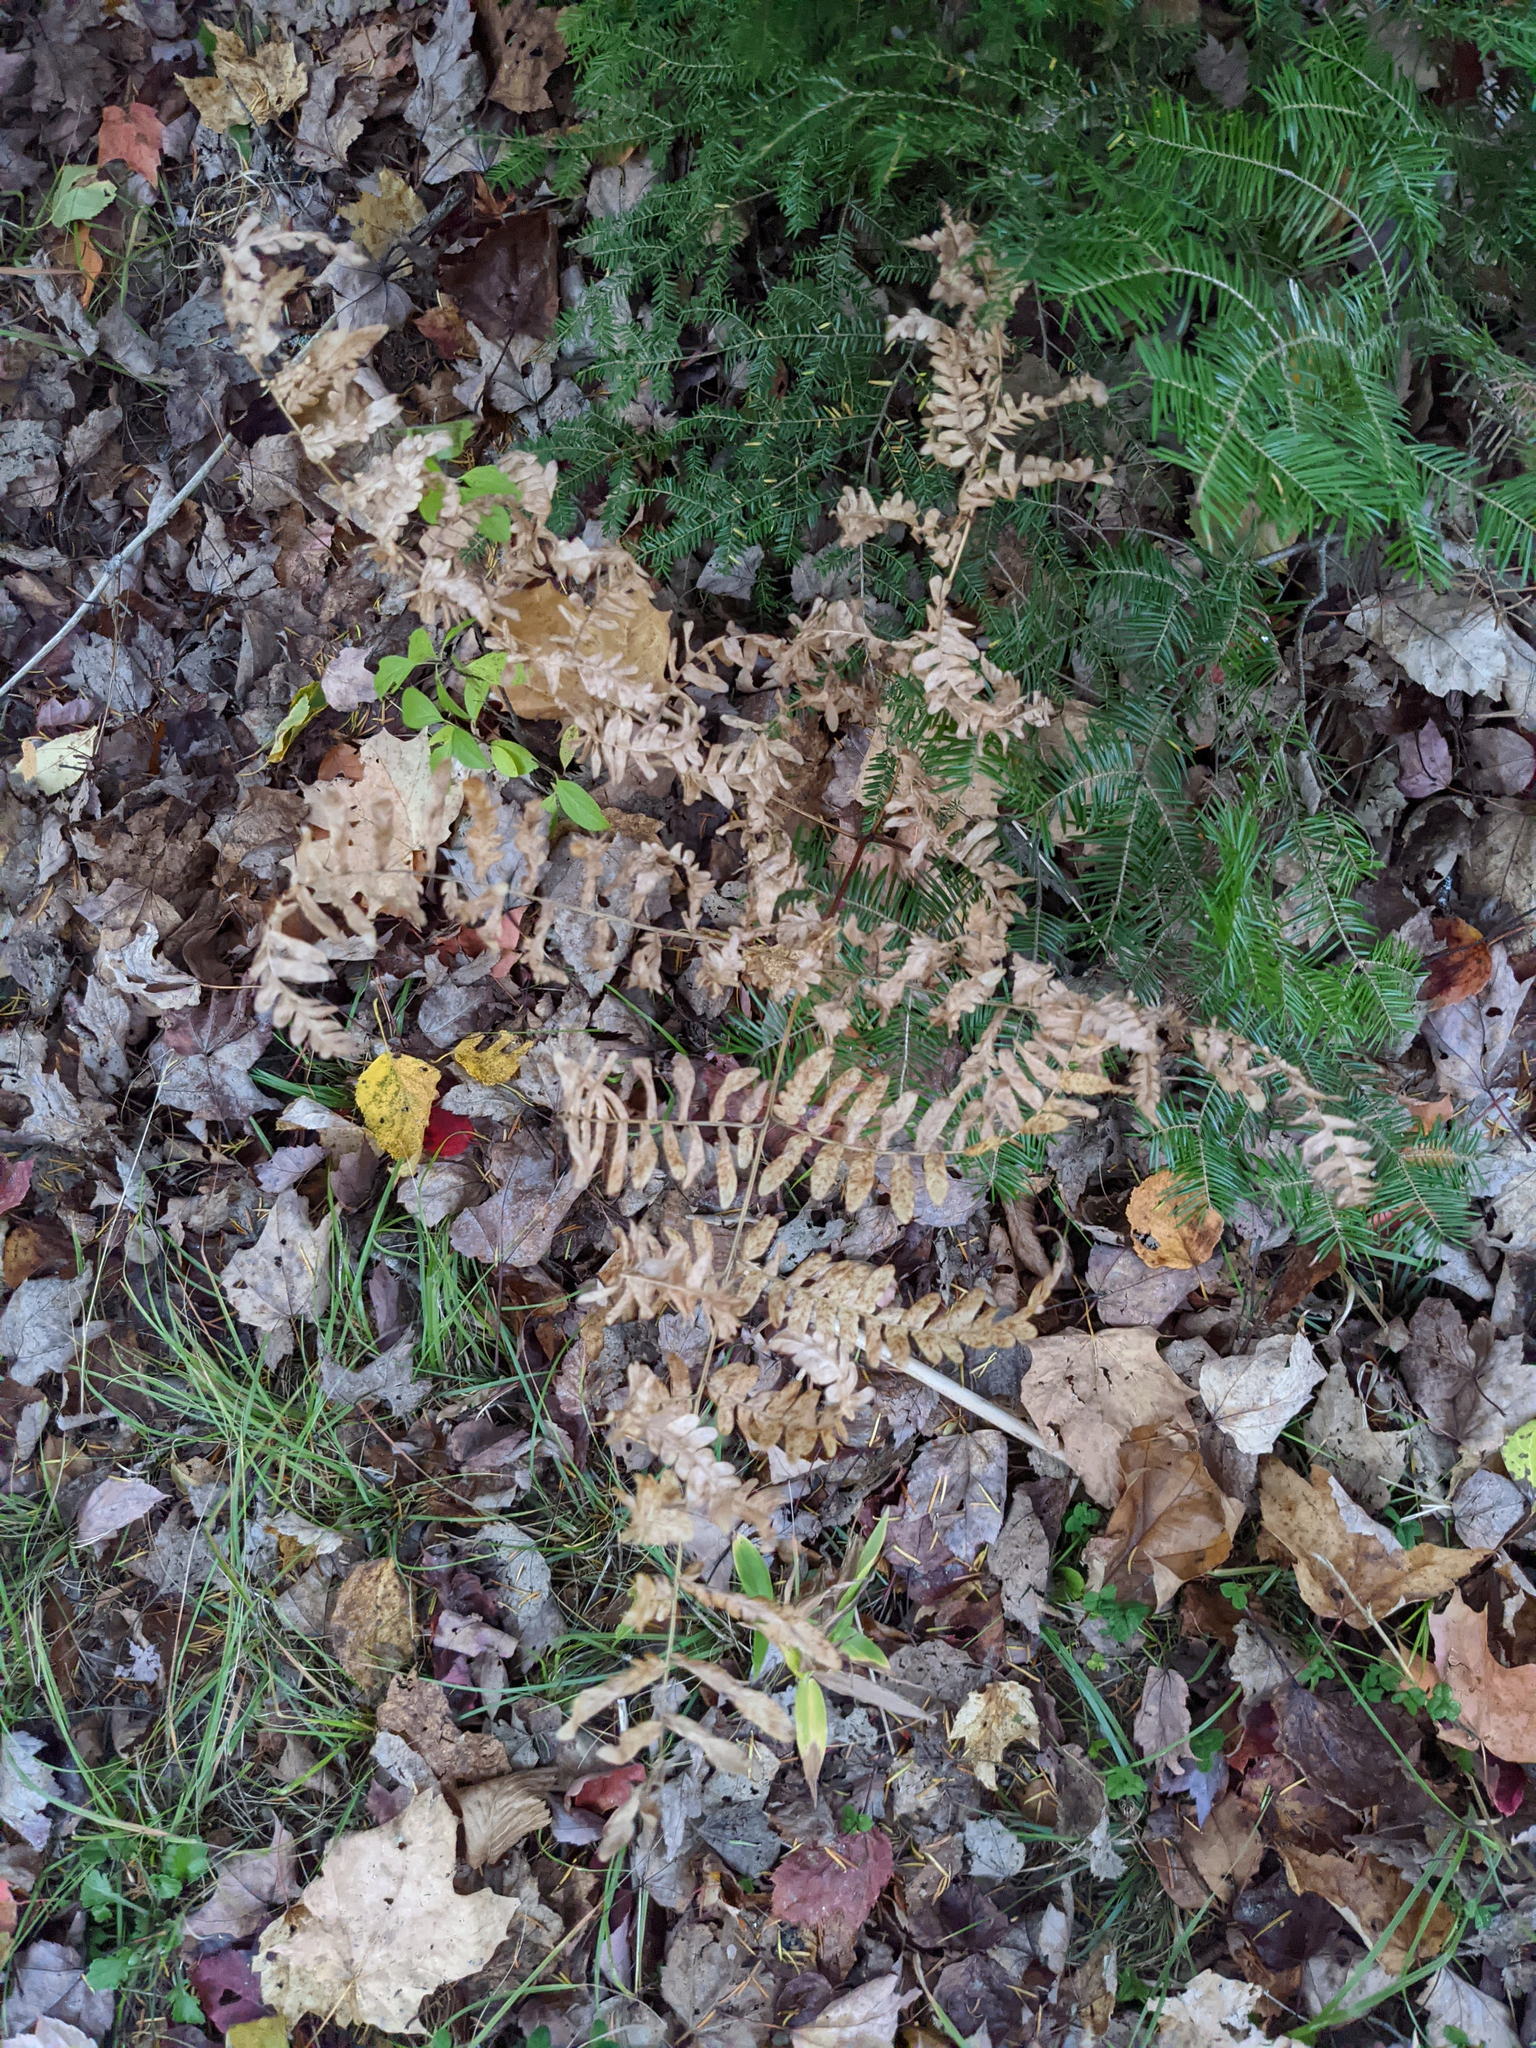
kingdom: Plantae
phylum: Tracheophyta
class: Polypodiopsida
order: Polypodiales
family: Dennstaedtiaceae
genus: Pteridium
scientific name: Pteridium aquilinum
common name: Bracken
